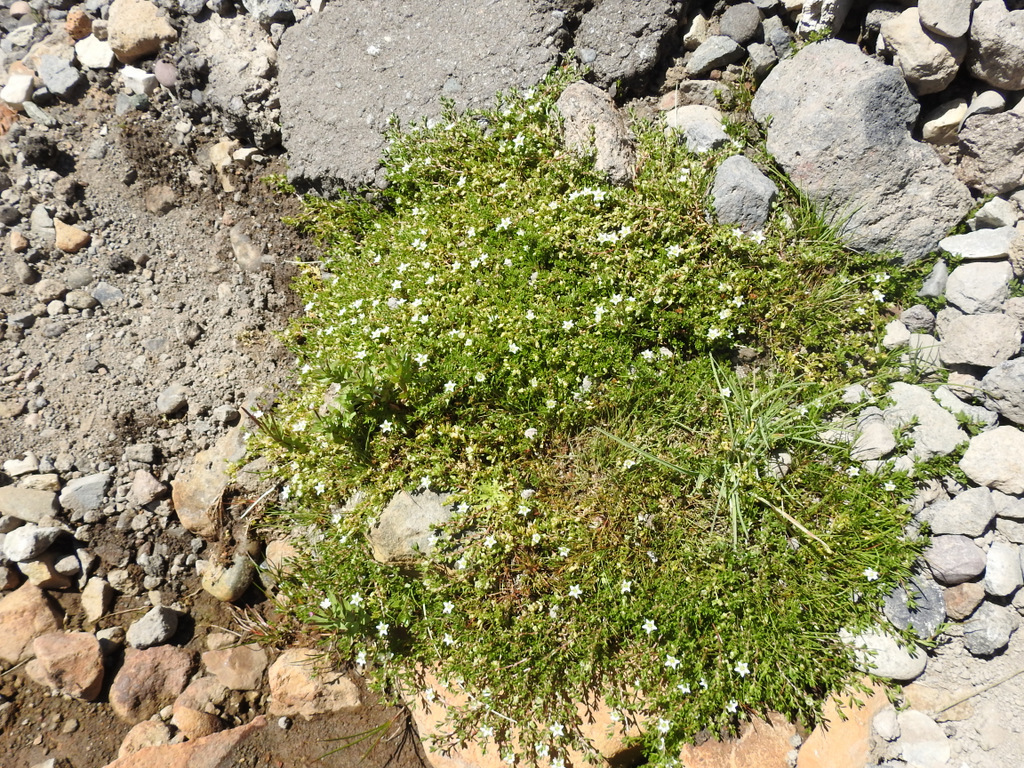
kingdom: Plantae
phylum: Tracheophyta
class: Magnoliopsida
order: Caryophyllales
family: Caryophyllaceae
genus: Arenaria
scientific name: Arenaria serpens
